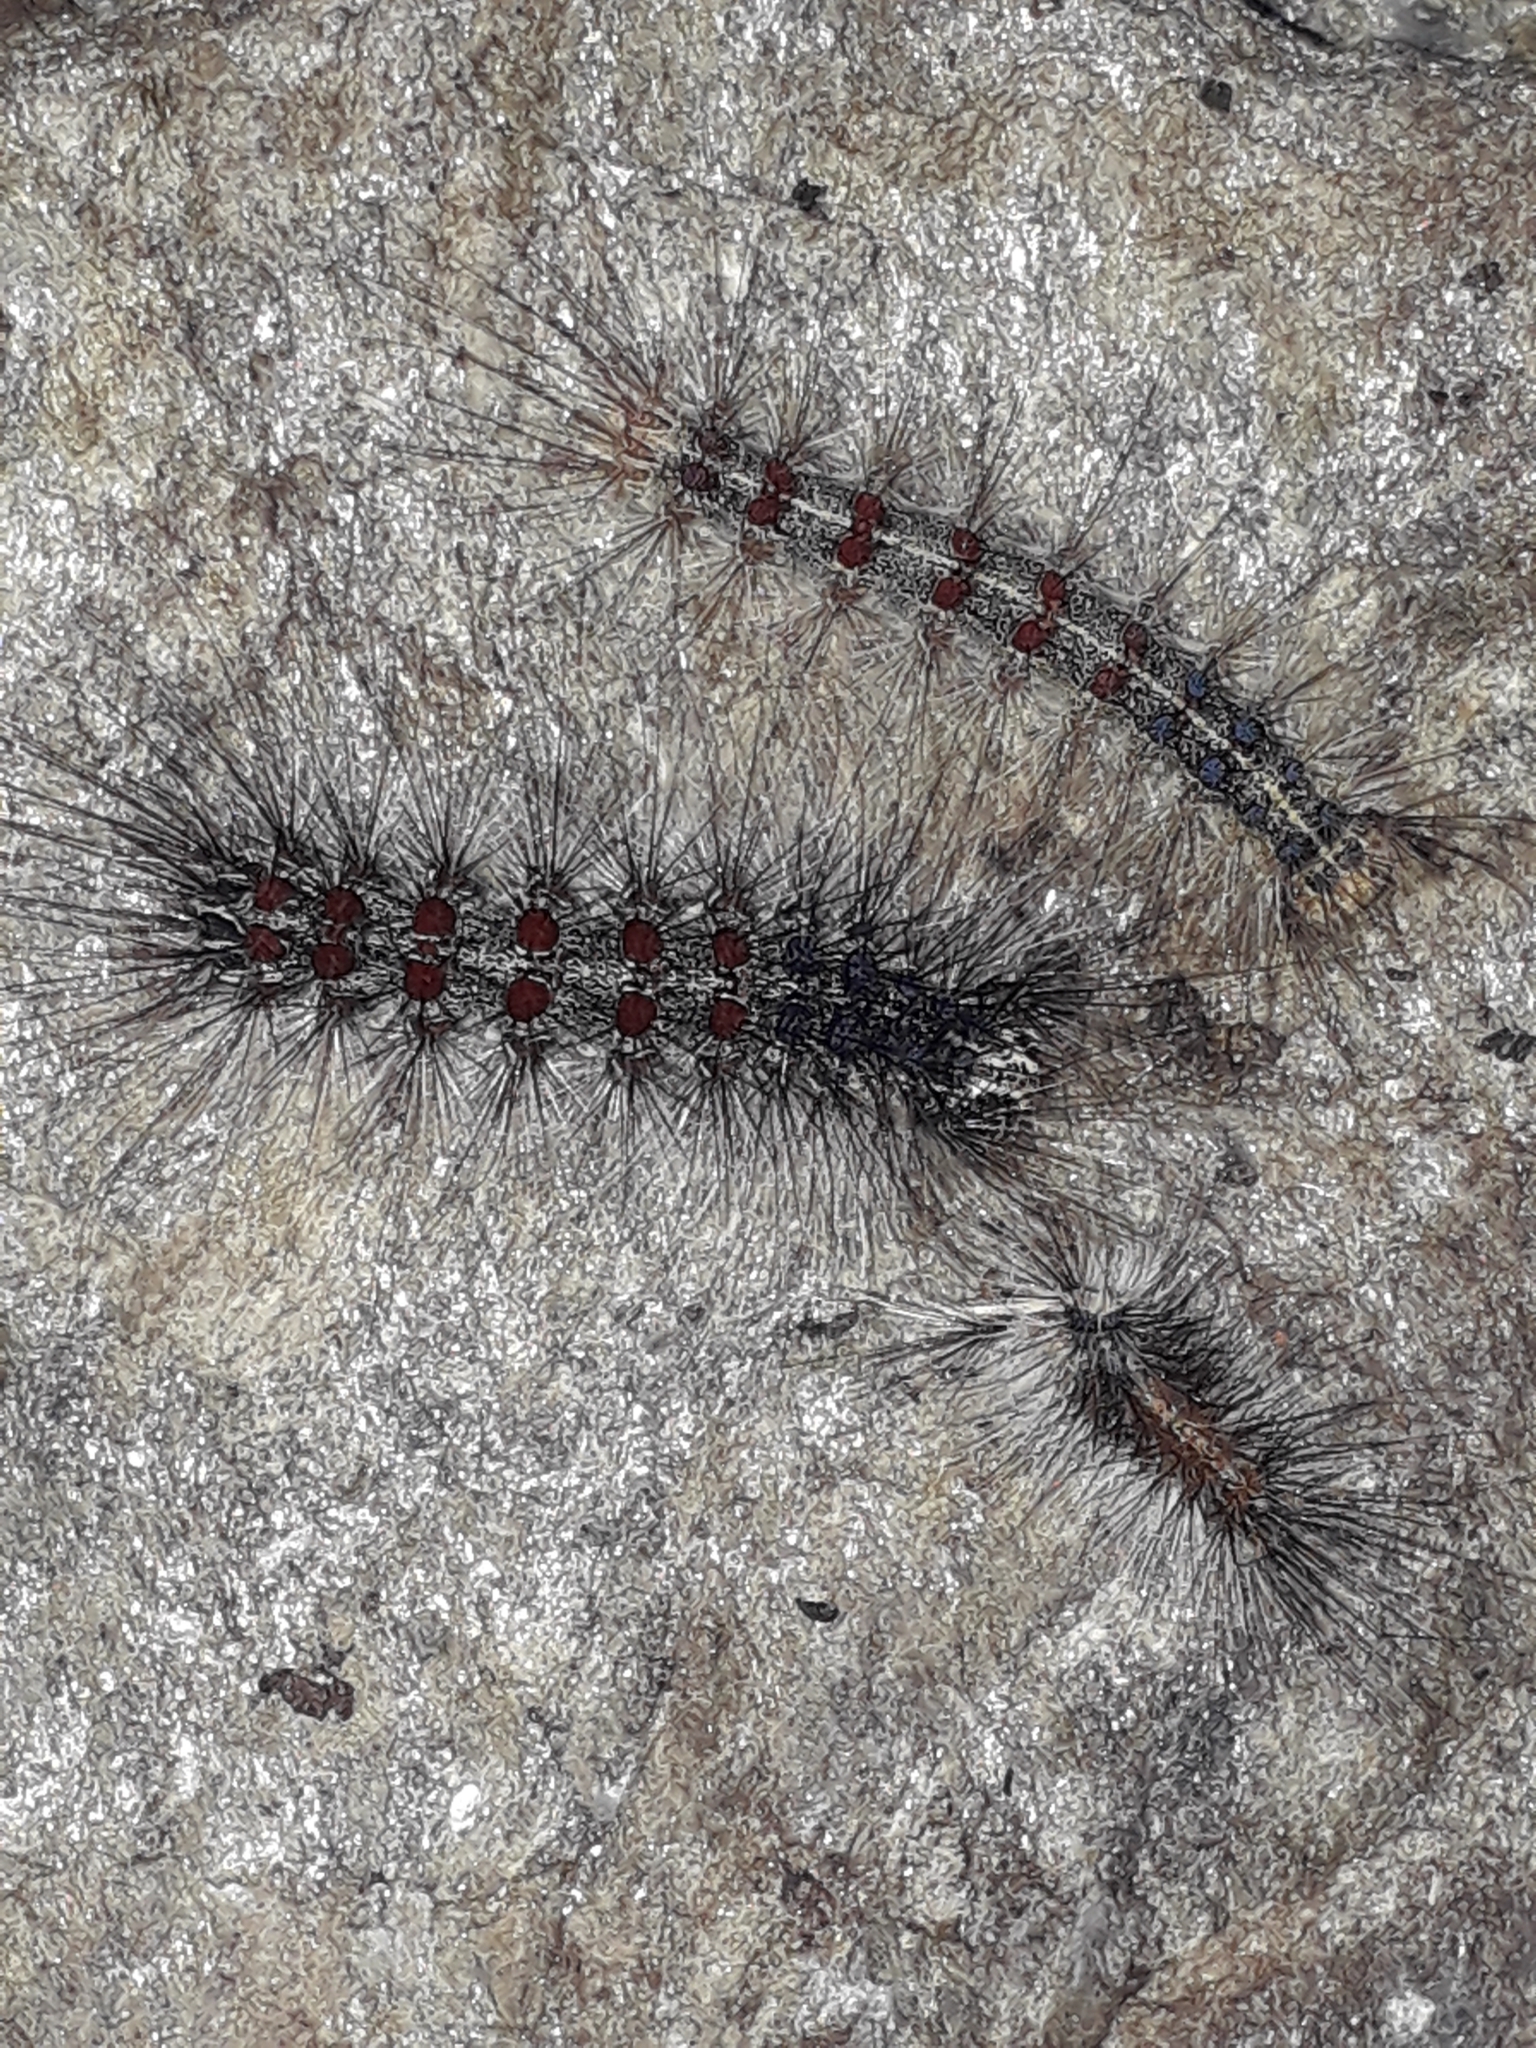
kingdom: Animalia
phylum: Arthropoda
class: Insecta
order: Lepidoptera
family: Erebidae
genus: Lymantria
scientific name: Lymantria dispar
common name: Gypsy moth
